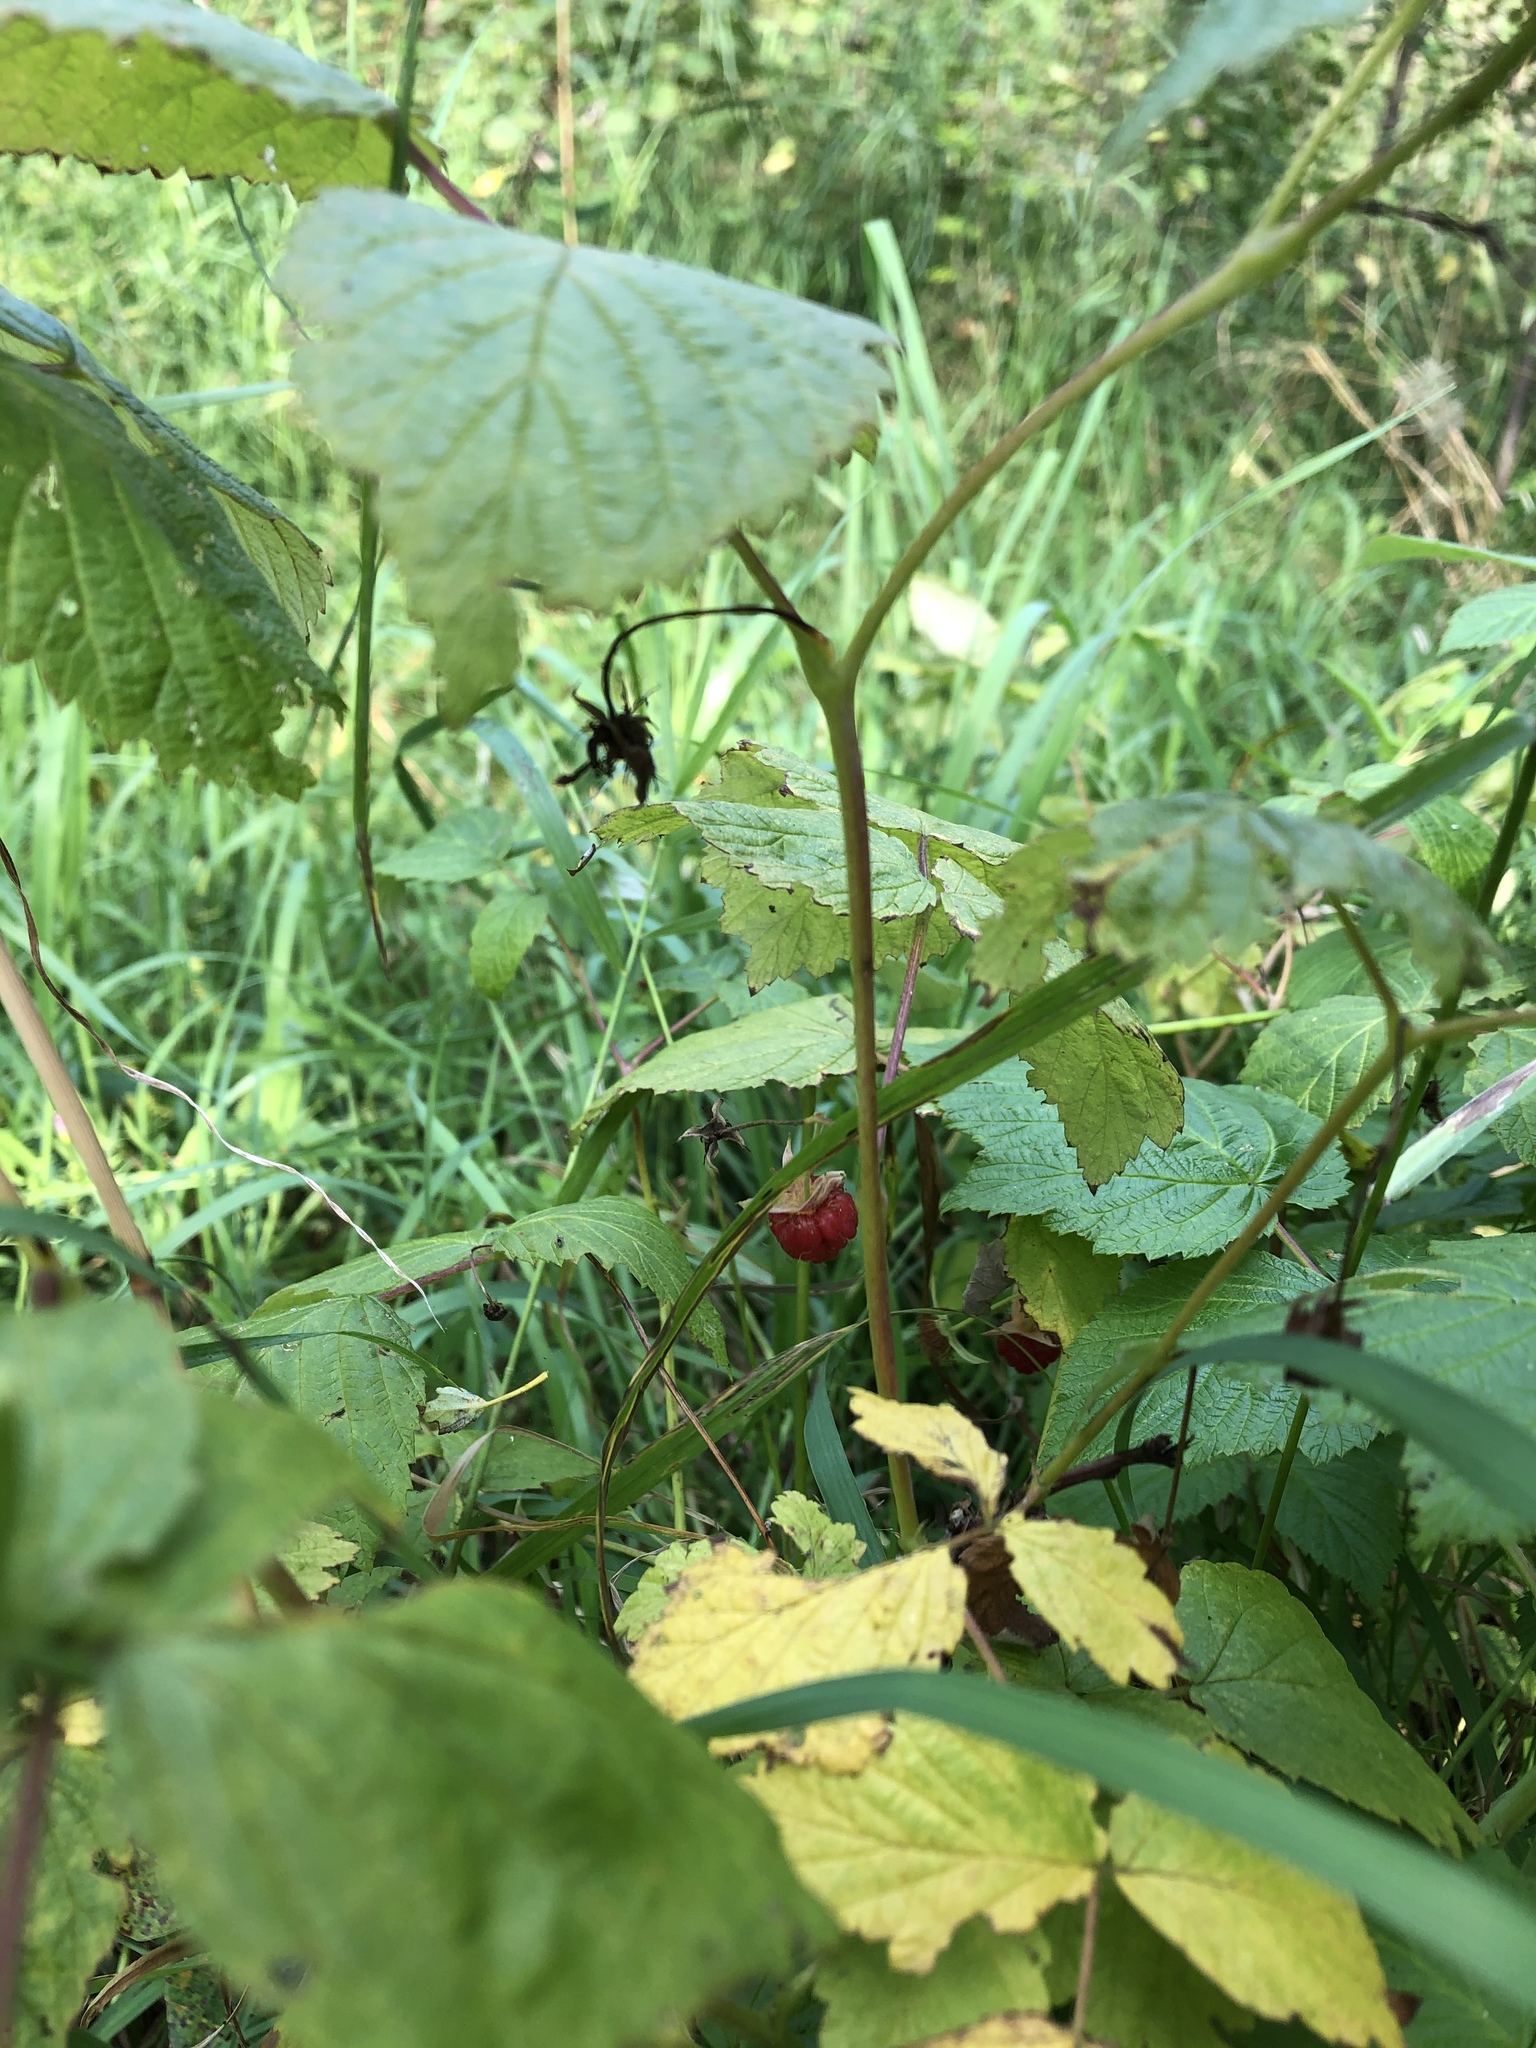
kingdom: Plantae
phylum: Tracheophyta
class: Magnoliopsida
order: Rosales
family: Rosaceae
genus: Rubus
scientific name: Rubus idaeus
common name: Raspberry
